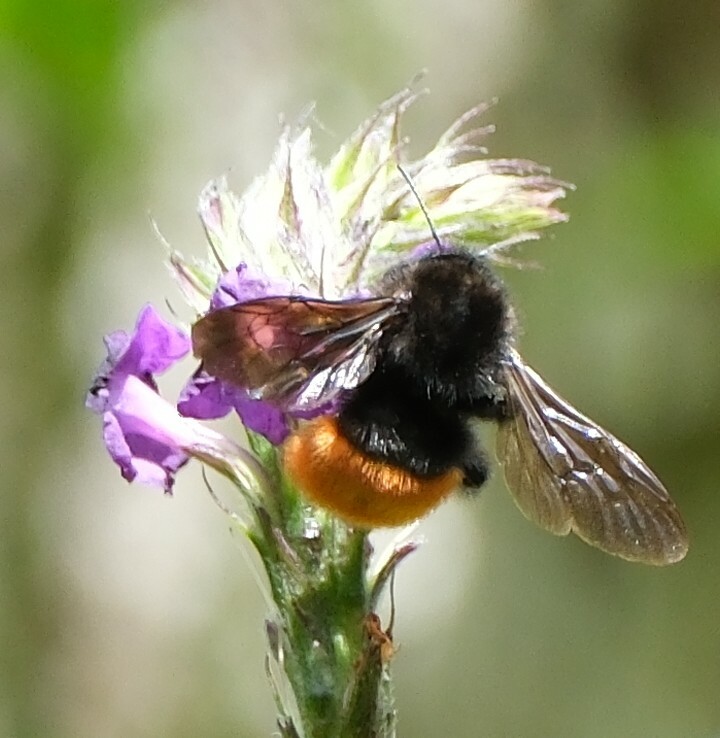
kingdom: Animalia
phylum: Arthropoda
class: Insecta
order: Hymenoptera
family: Apidae
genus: Bombus
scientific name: Bombus excellens
